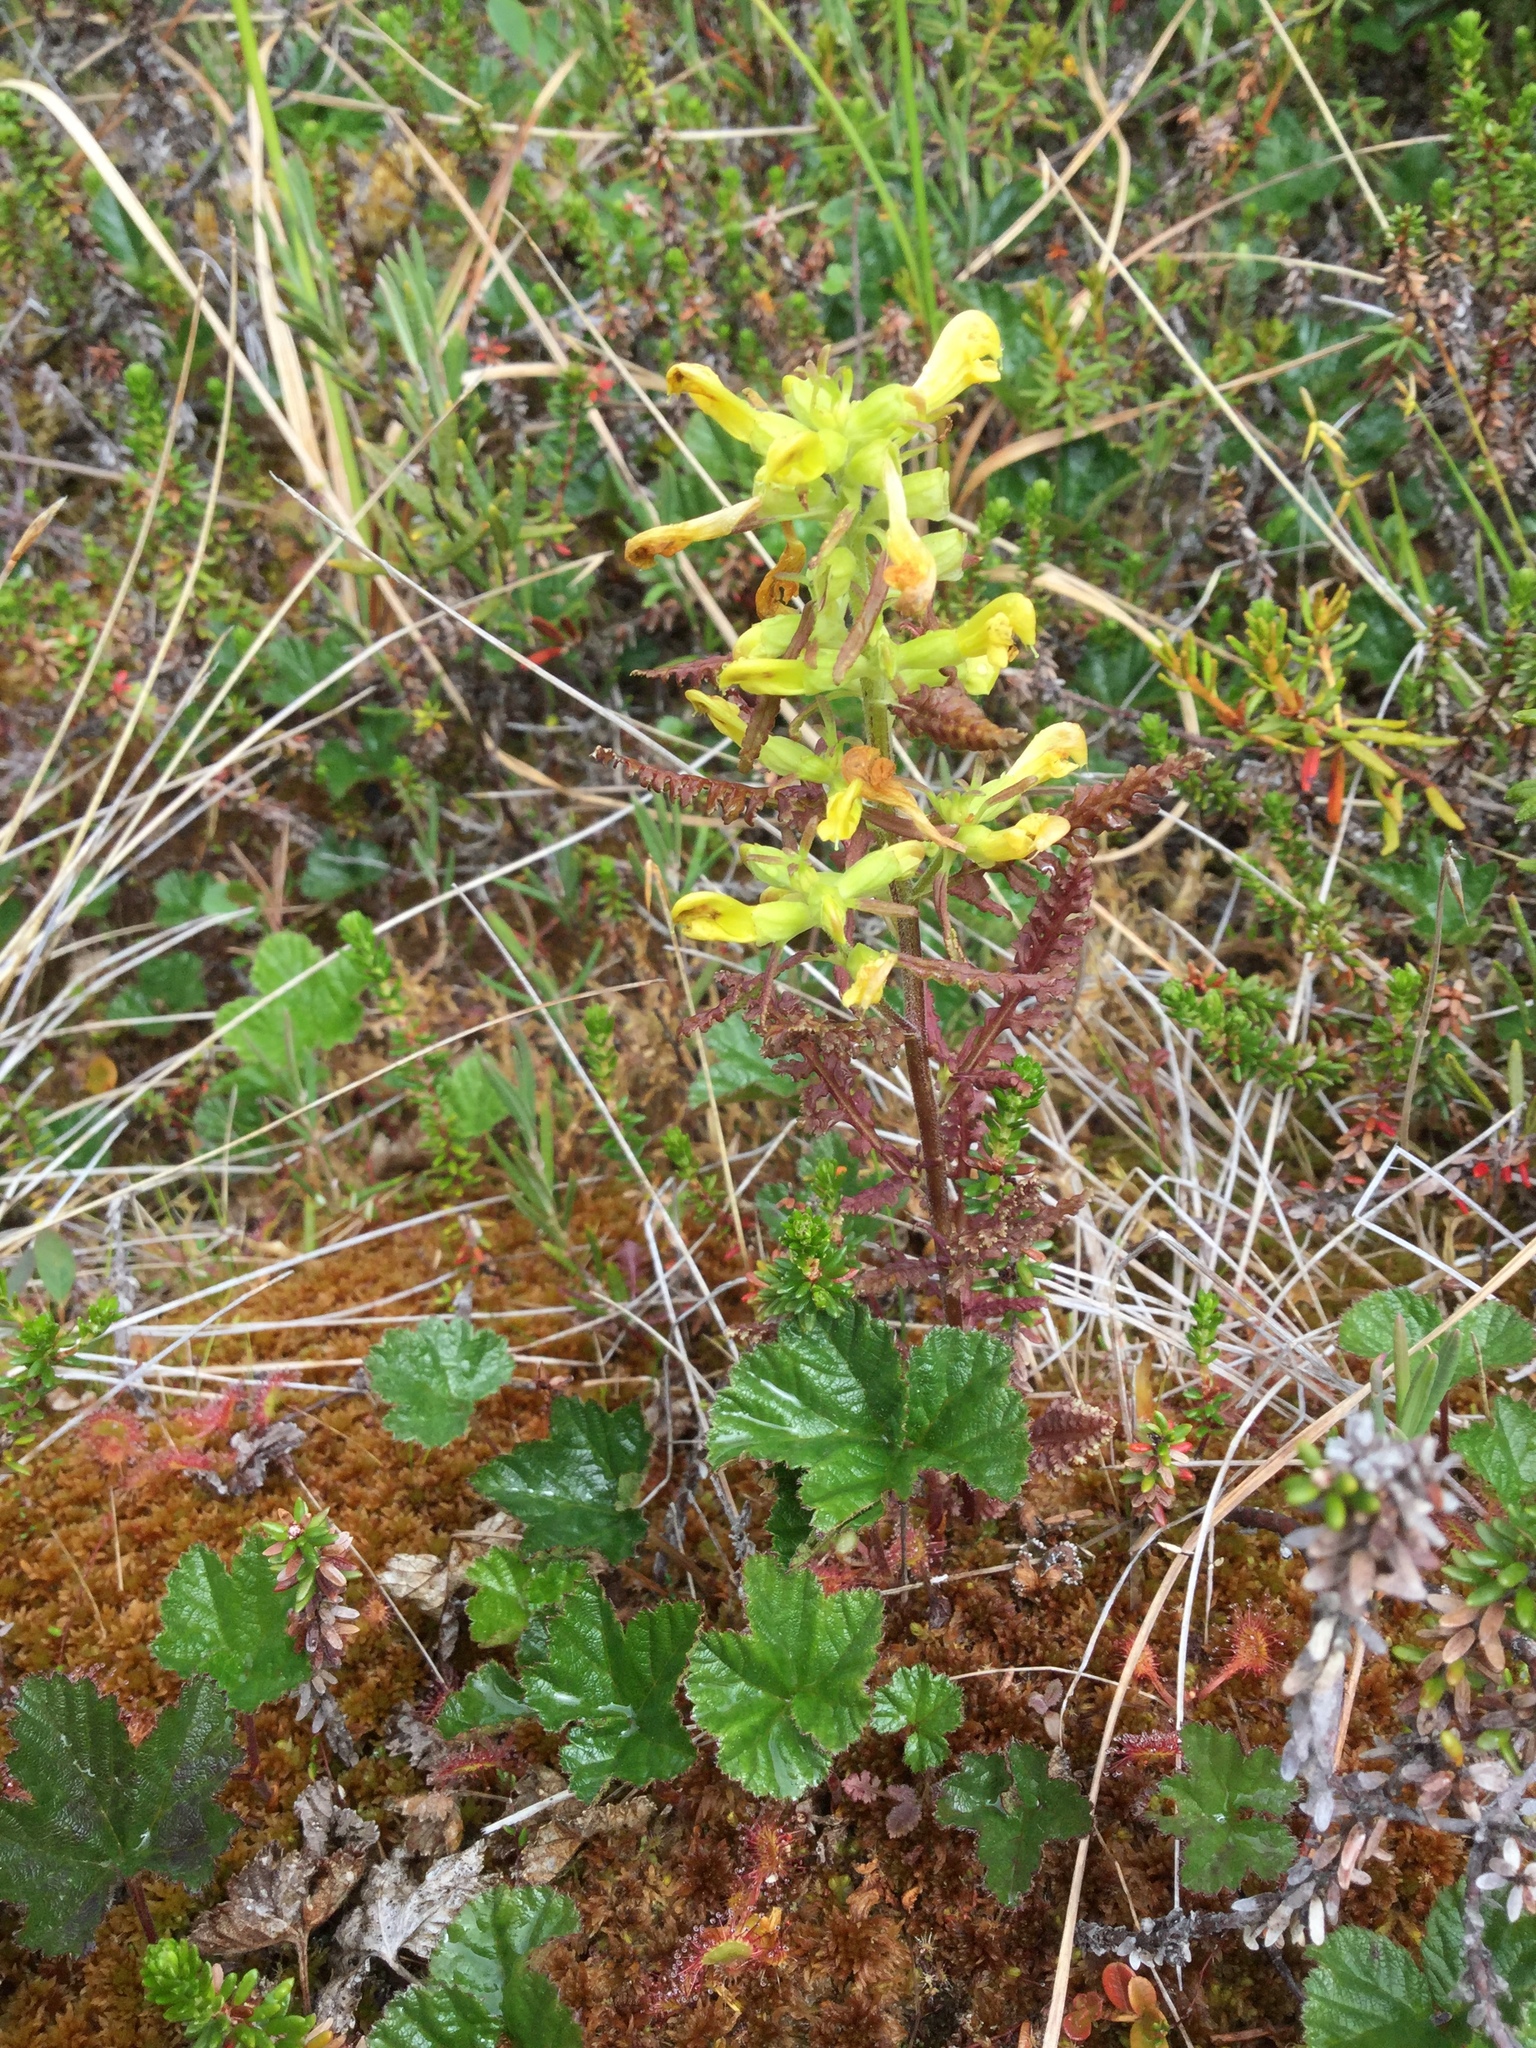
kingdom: Plantae
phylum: Tracheophyta
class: Magnoliopsida
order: Lamiales
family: Orobanchaceae
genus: Pedicularis
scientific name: Pedicularis labradorica
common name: Labrador lousewort
